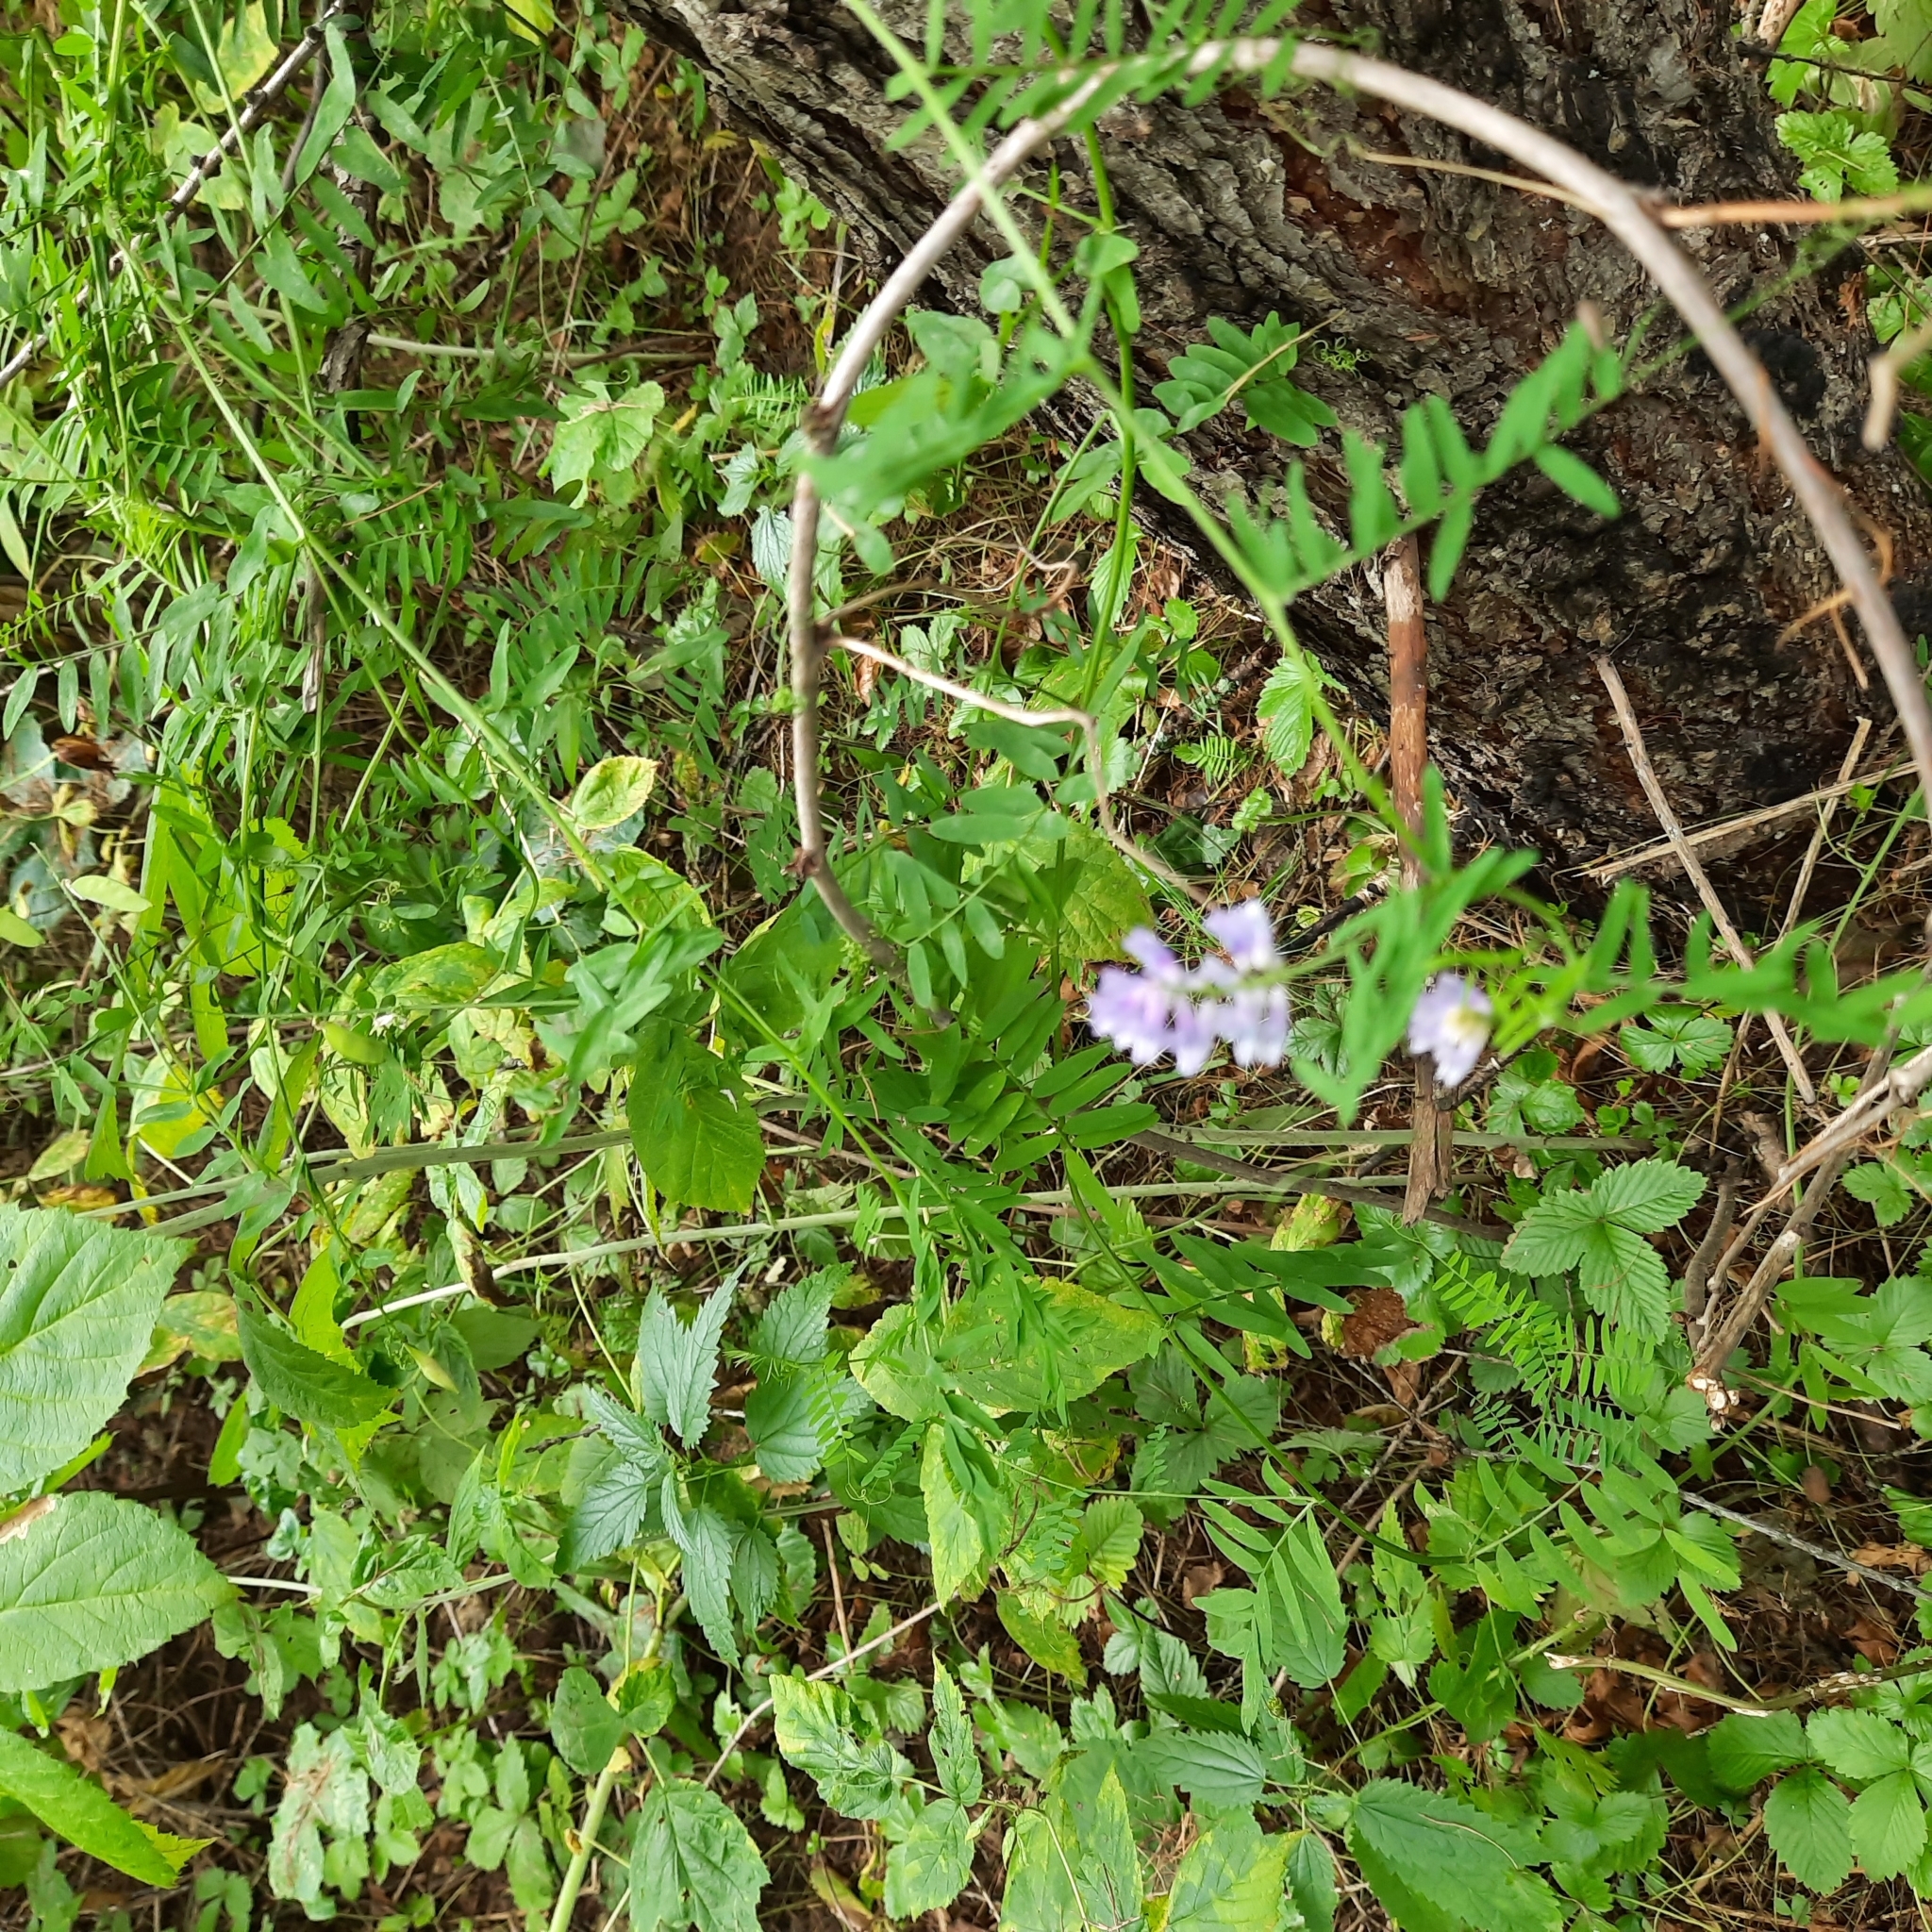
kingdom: Plantae
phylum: Tracheophyta
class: Magnoliopsida
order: Fabales
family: Fabaceae
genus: Vicia
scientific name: Vicia cracca
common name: Bird vetch
